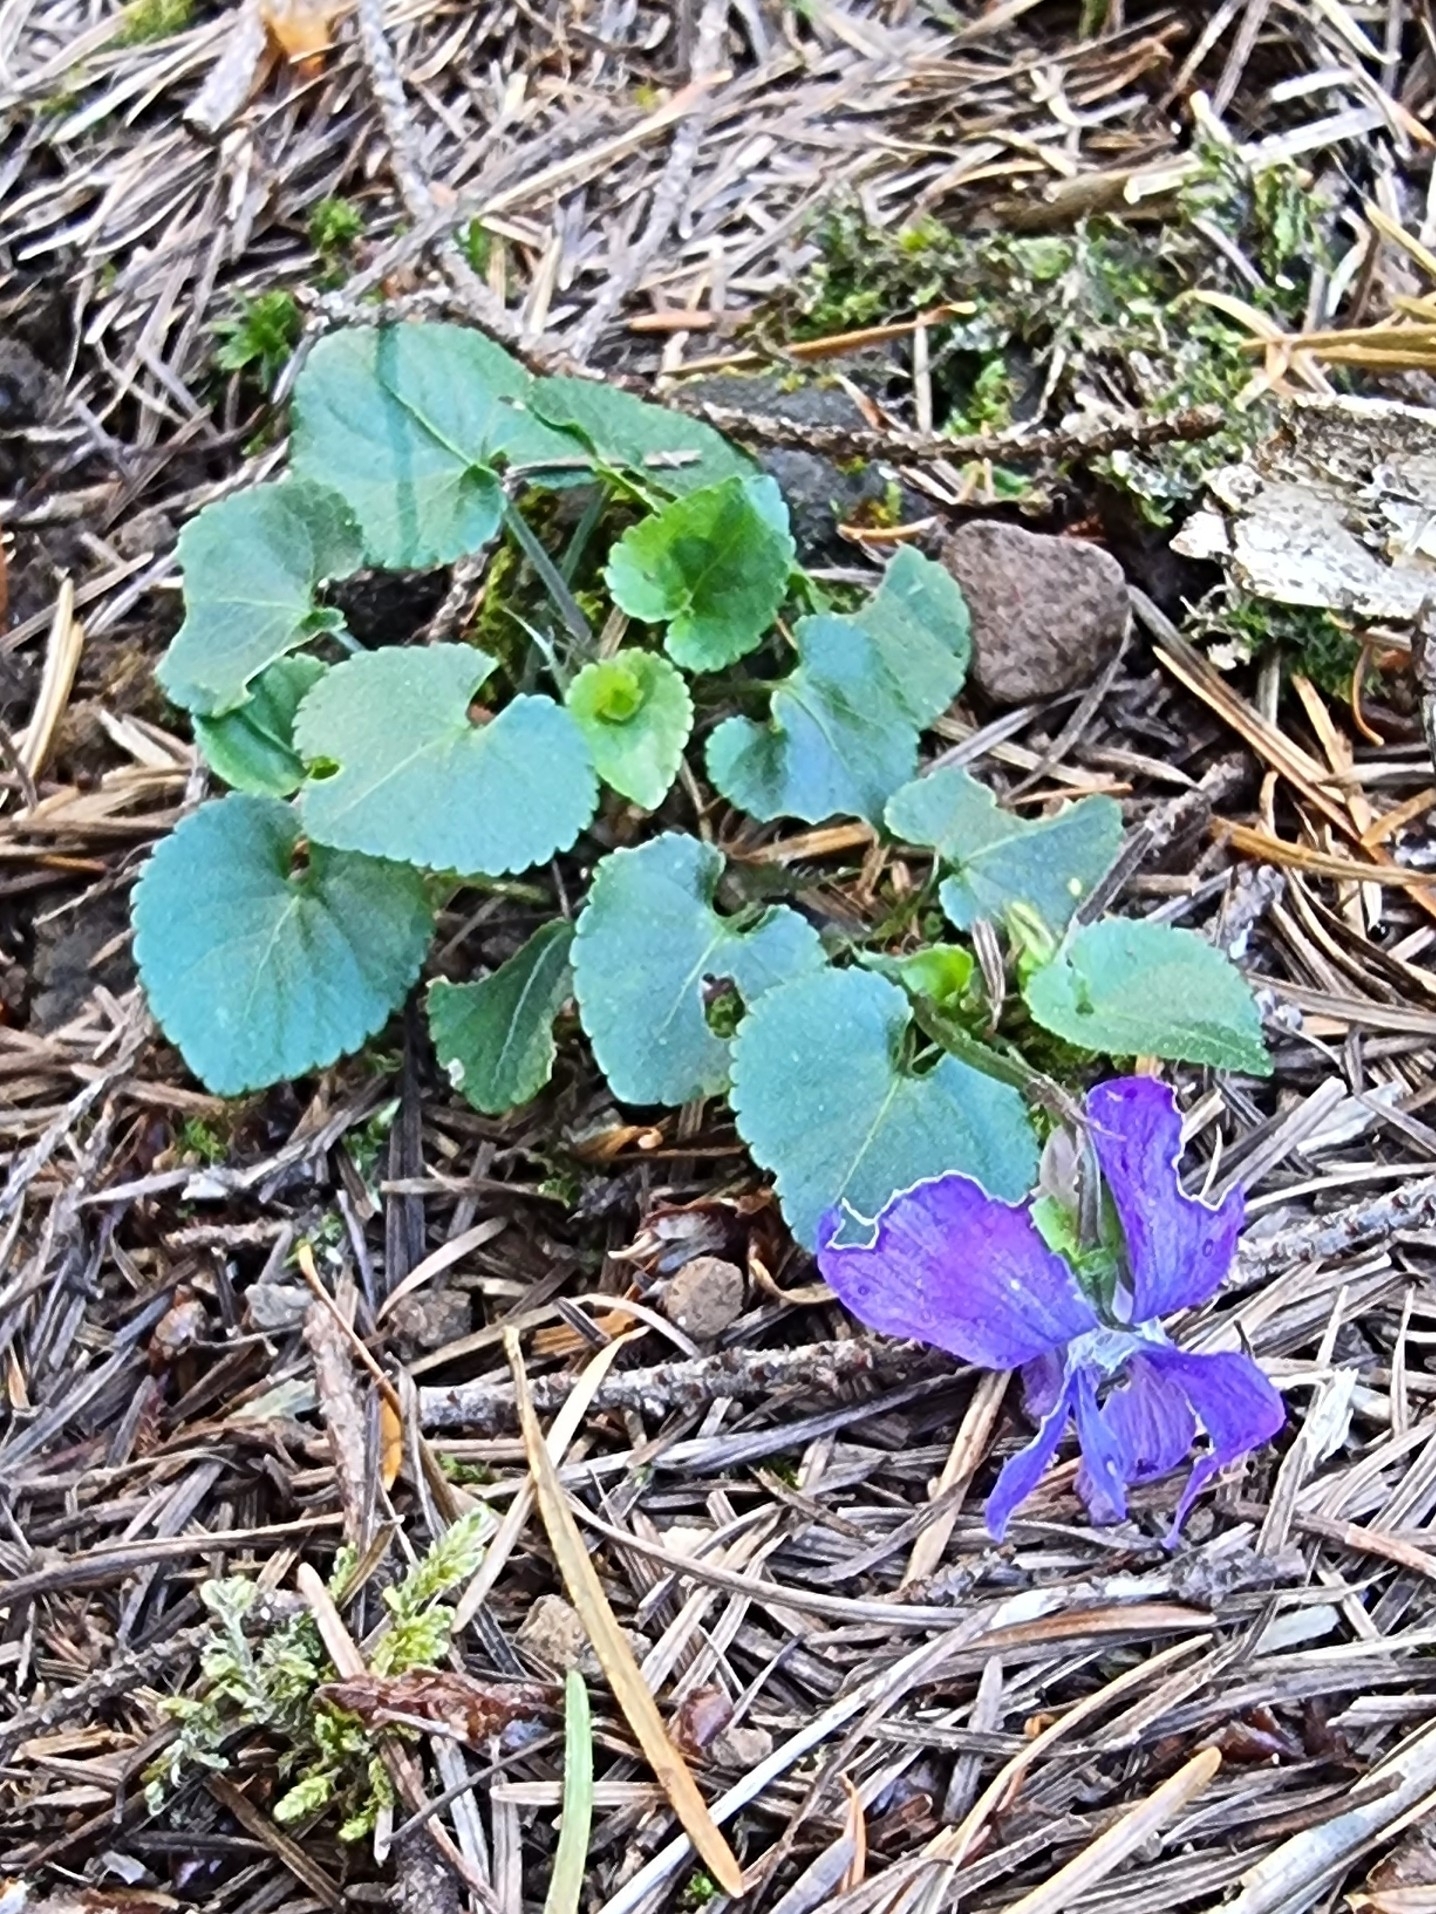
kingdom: Plantae
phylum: Tracheophyta
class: Magnoliopsida
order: Malpighiales
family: Violaceae
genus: Viola
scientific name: Viola riviniana
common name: Common dog-violet
